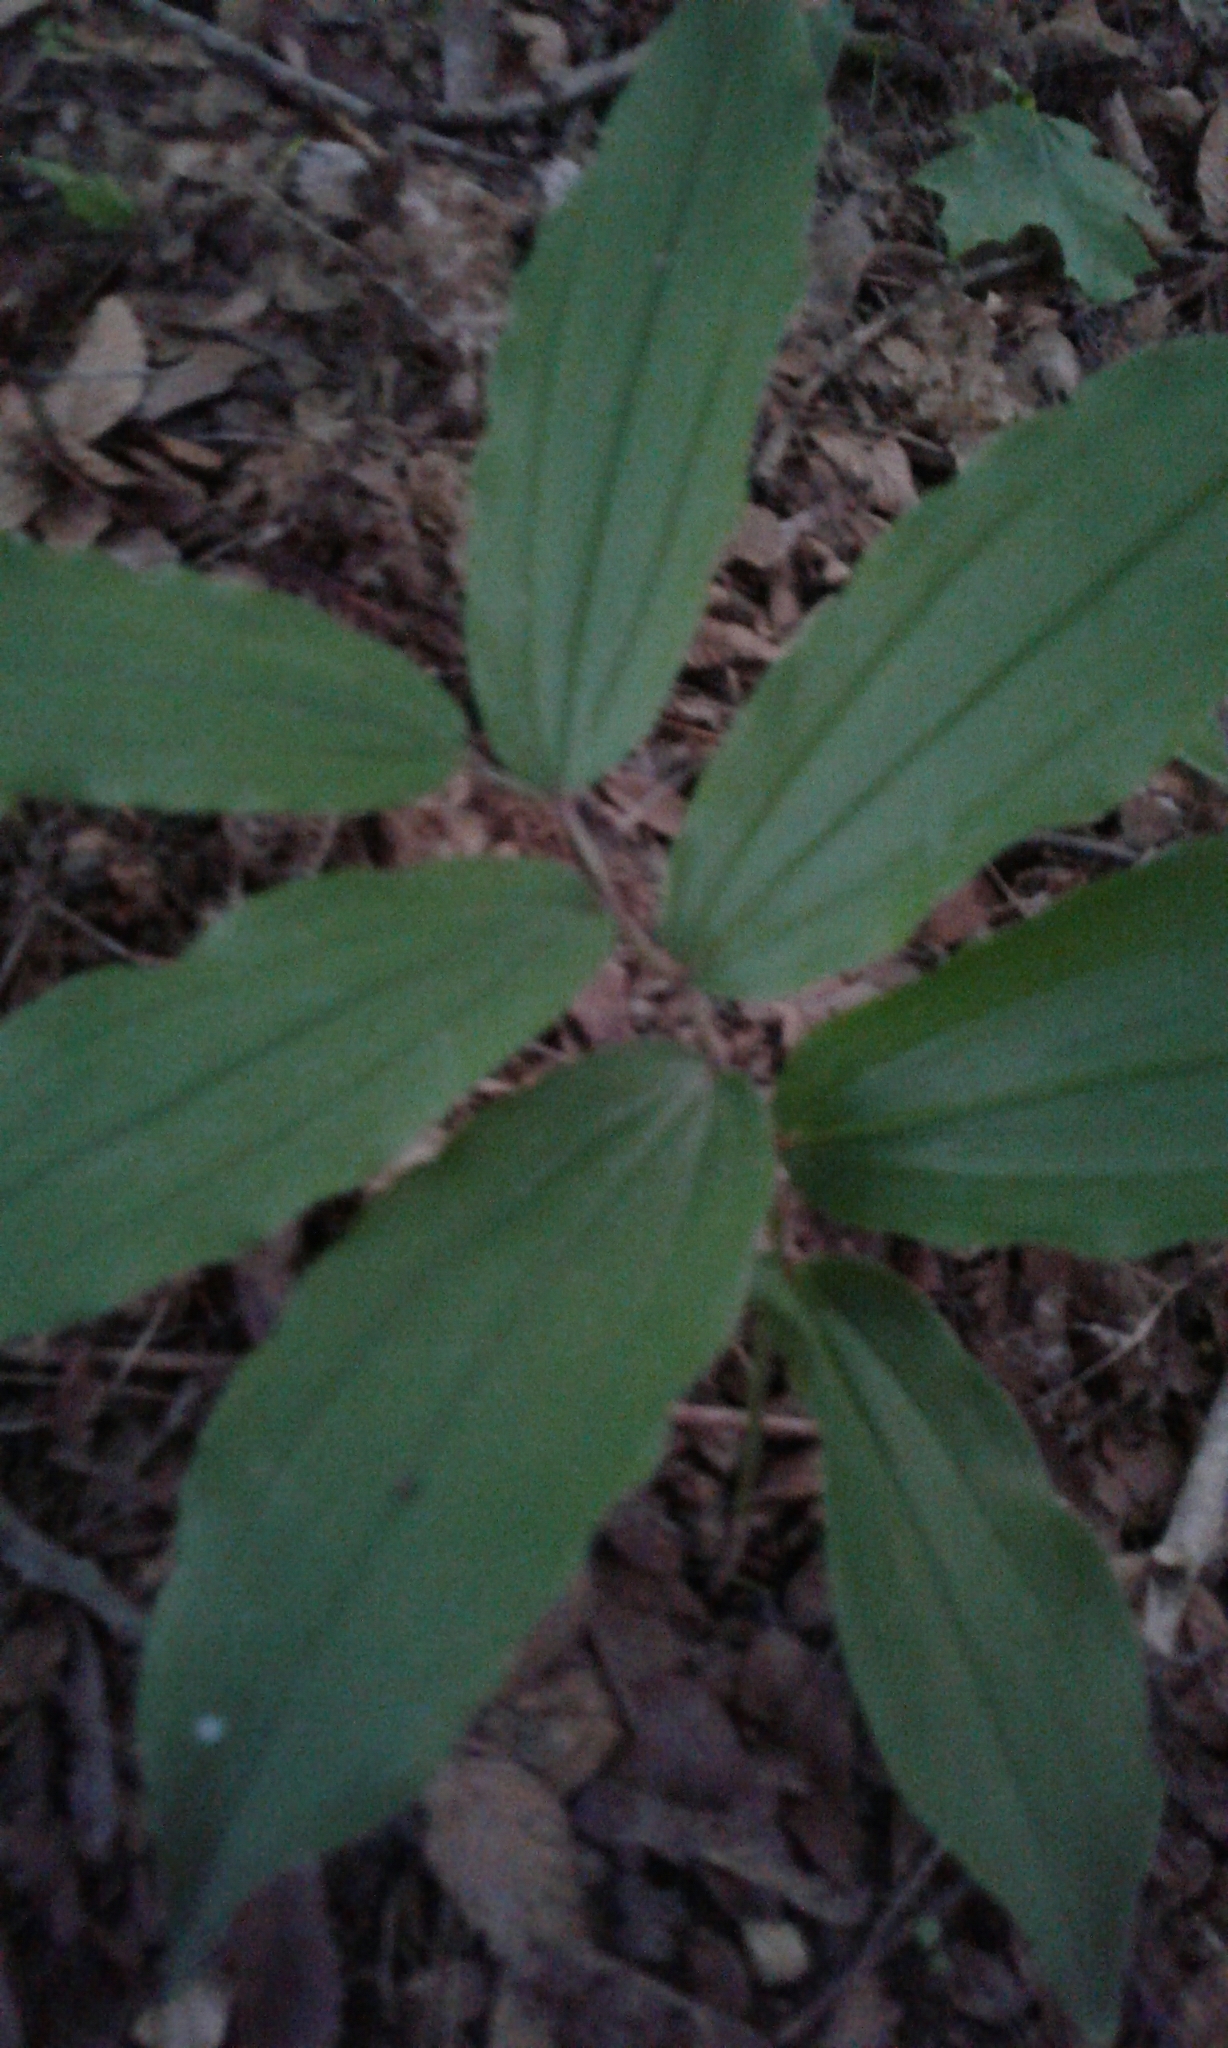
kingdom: Plantae
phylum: Tracheophyta
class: Liliopsida
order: Asparagales
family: Asparagaceae
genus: Maianthemum
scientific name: Maianthemum racemosum
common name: False spikenard
